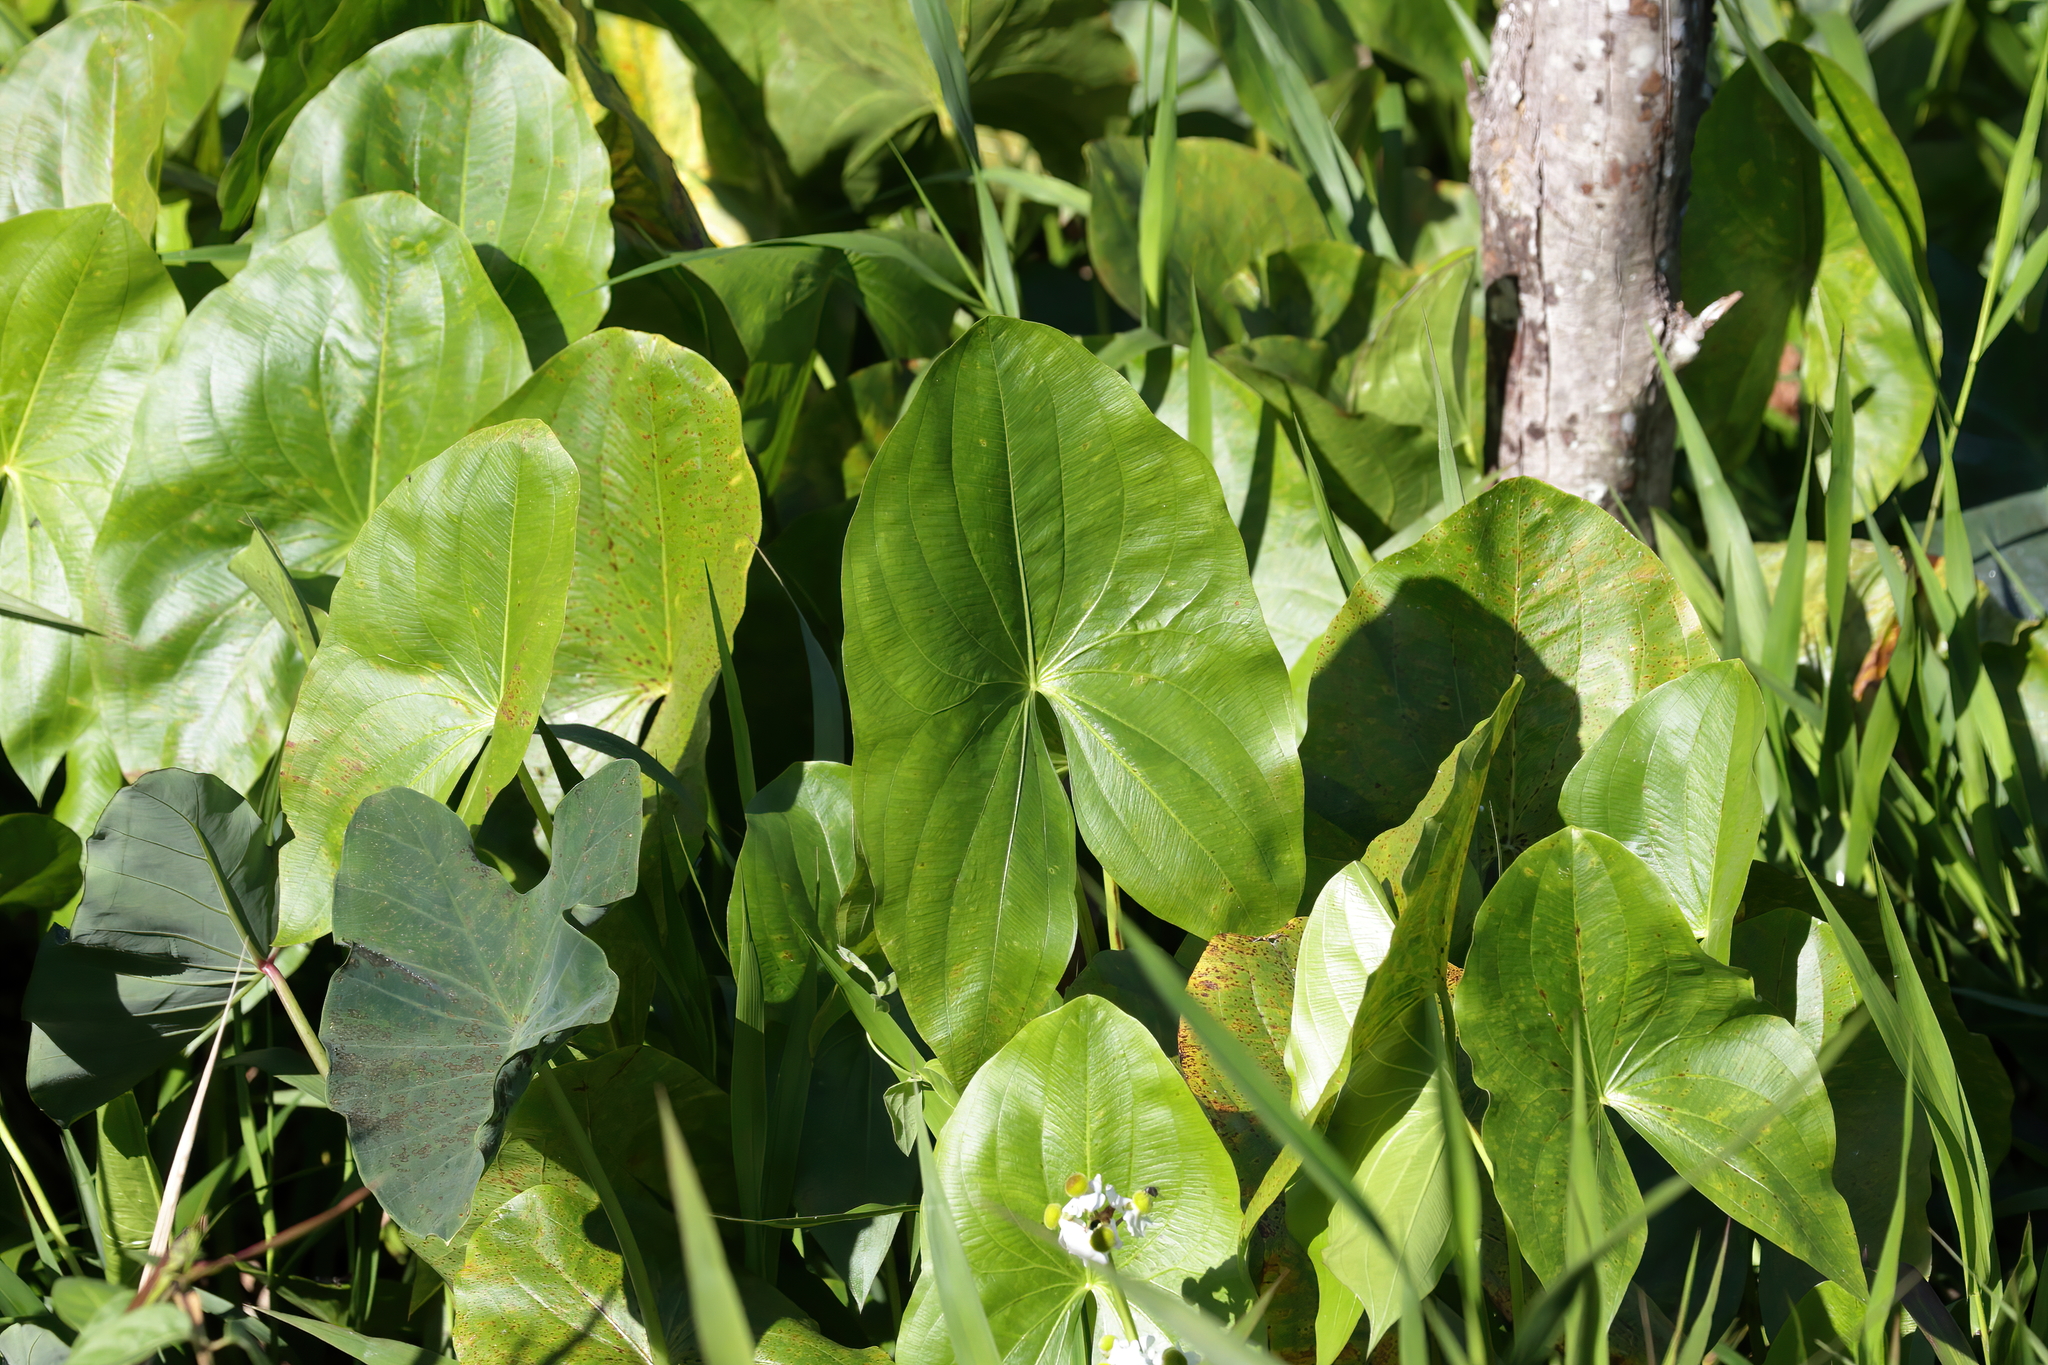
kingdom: Plantae
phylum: Tracheophyta
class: Liliopsida
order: Alismatales
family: Alismataceae
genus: Sagittaria
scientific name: Sagittaria latifolia
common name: Duck-potato
